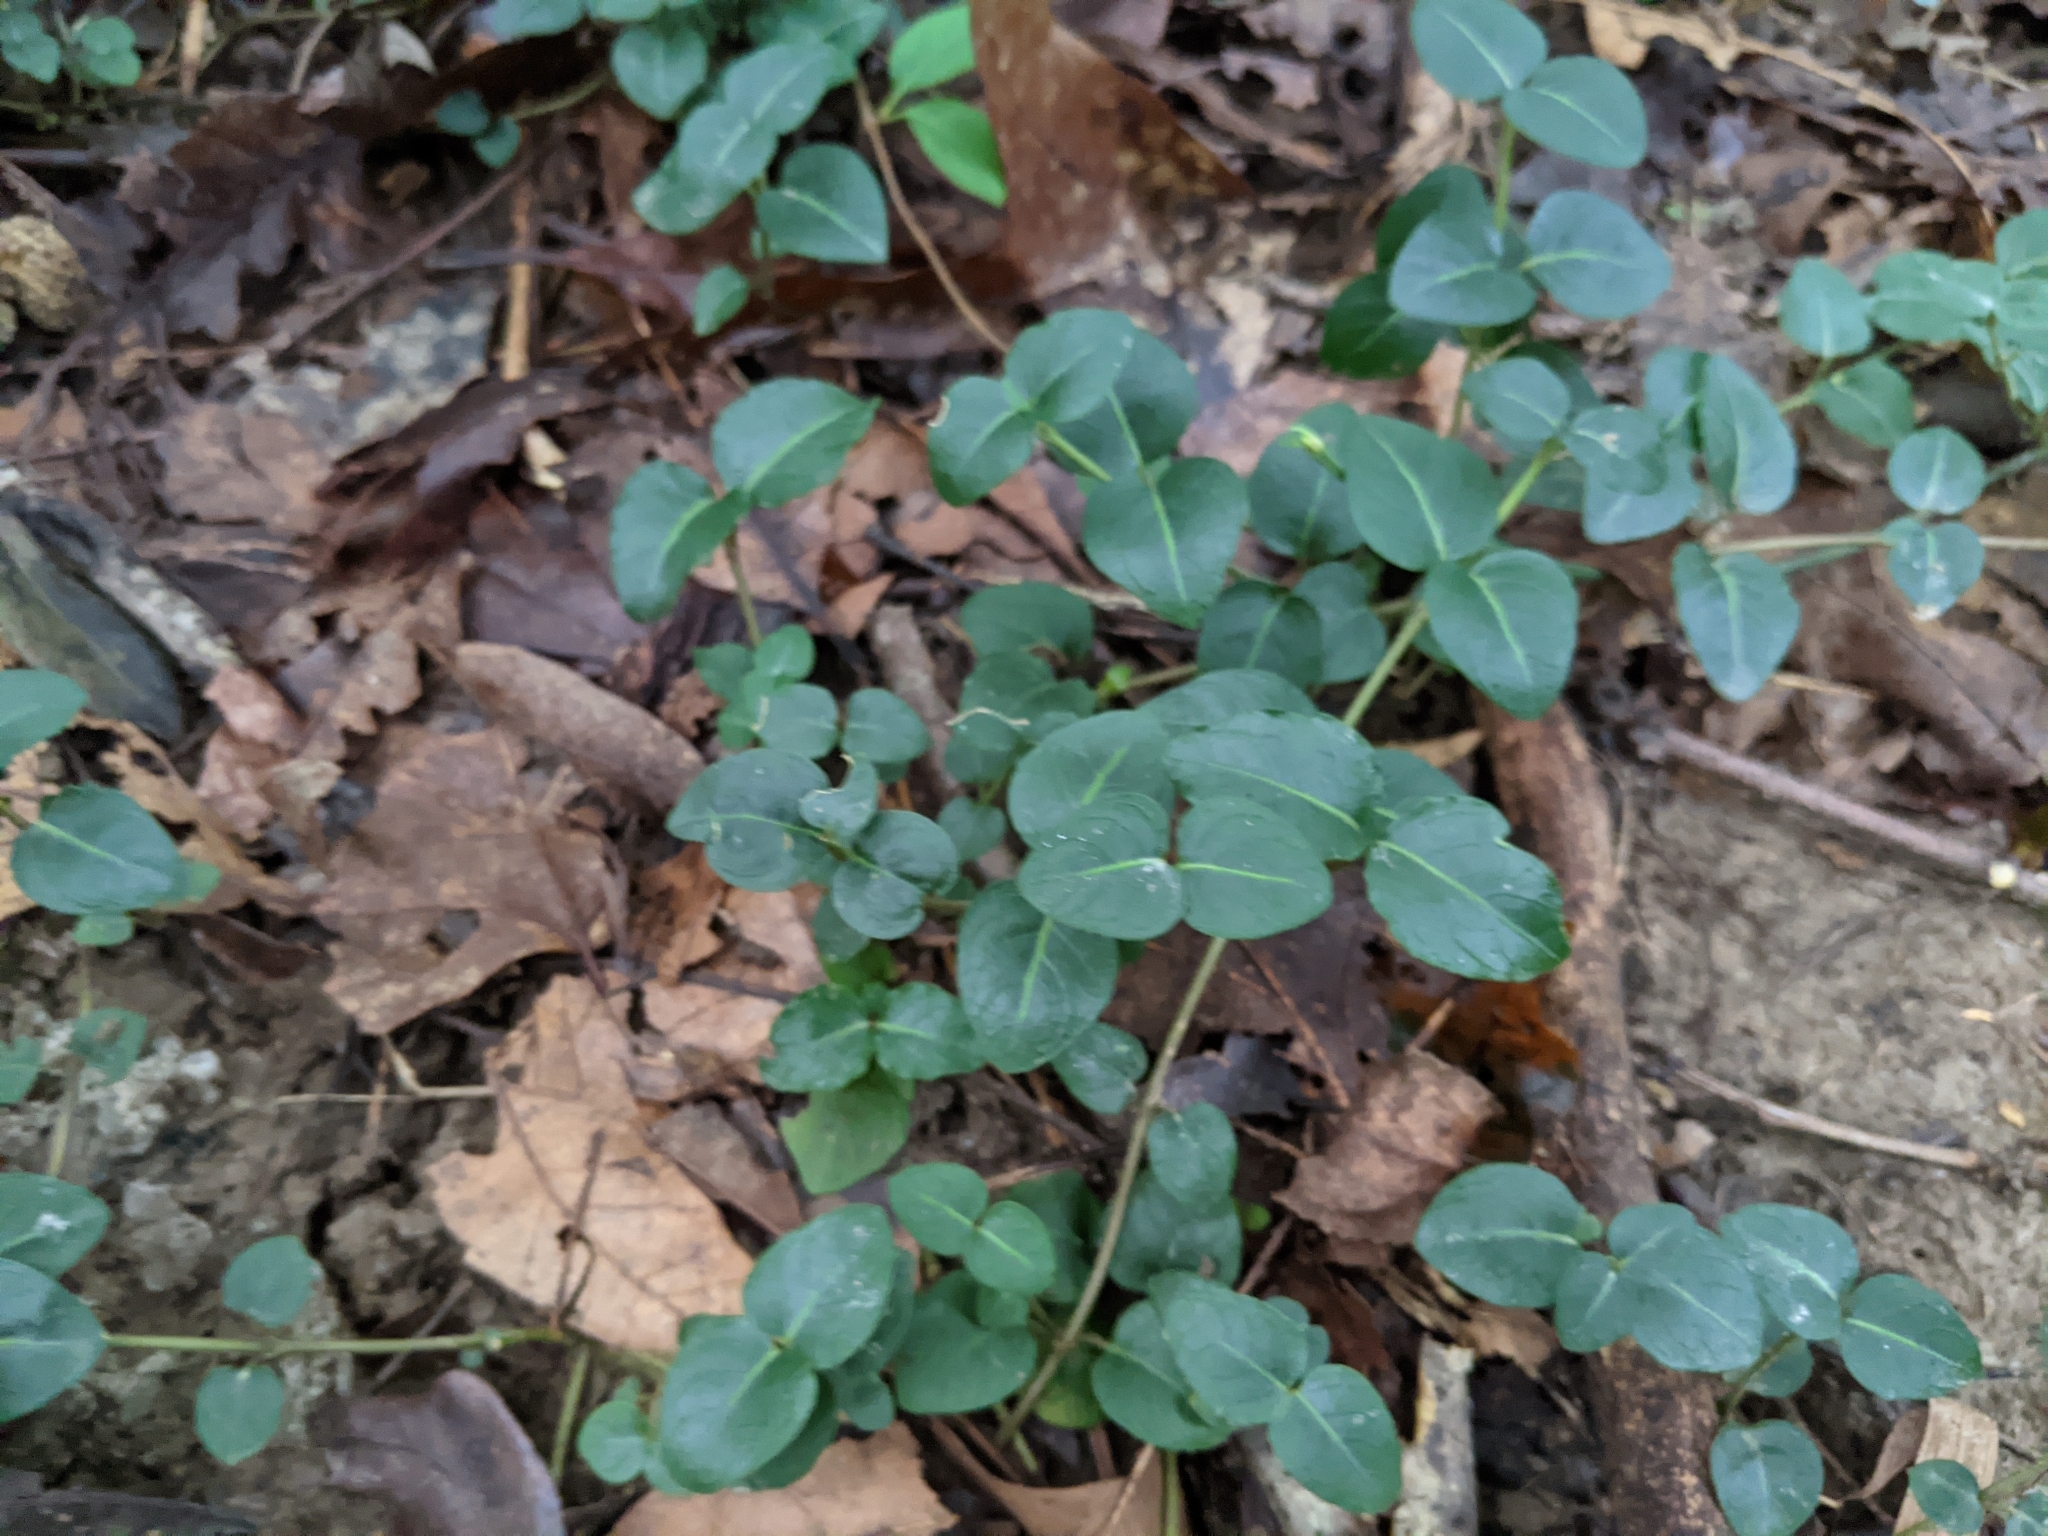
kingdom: Plantae
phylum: Tracheophyta
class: Magnoliopsida
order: Gentianales
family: Rubiaceae
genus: Mitchella
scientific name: Mitchella repens
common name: Partridge-berry
